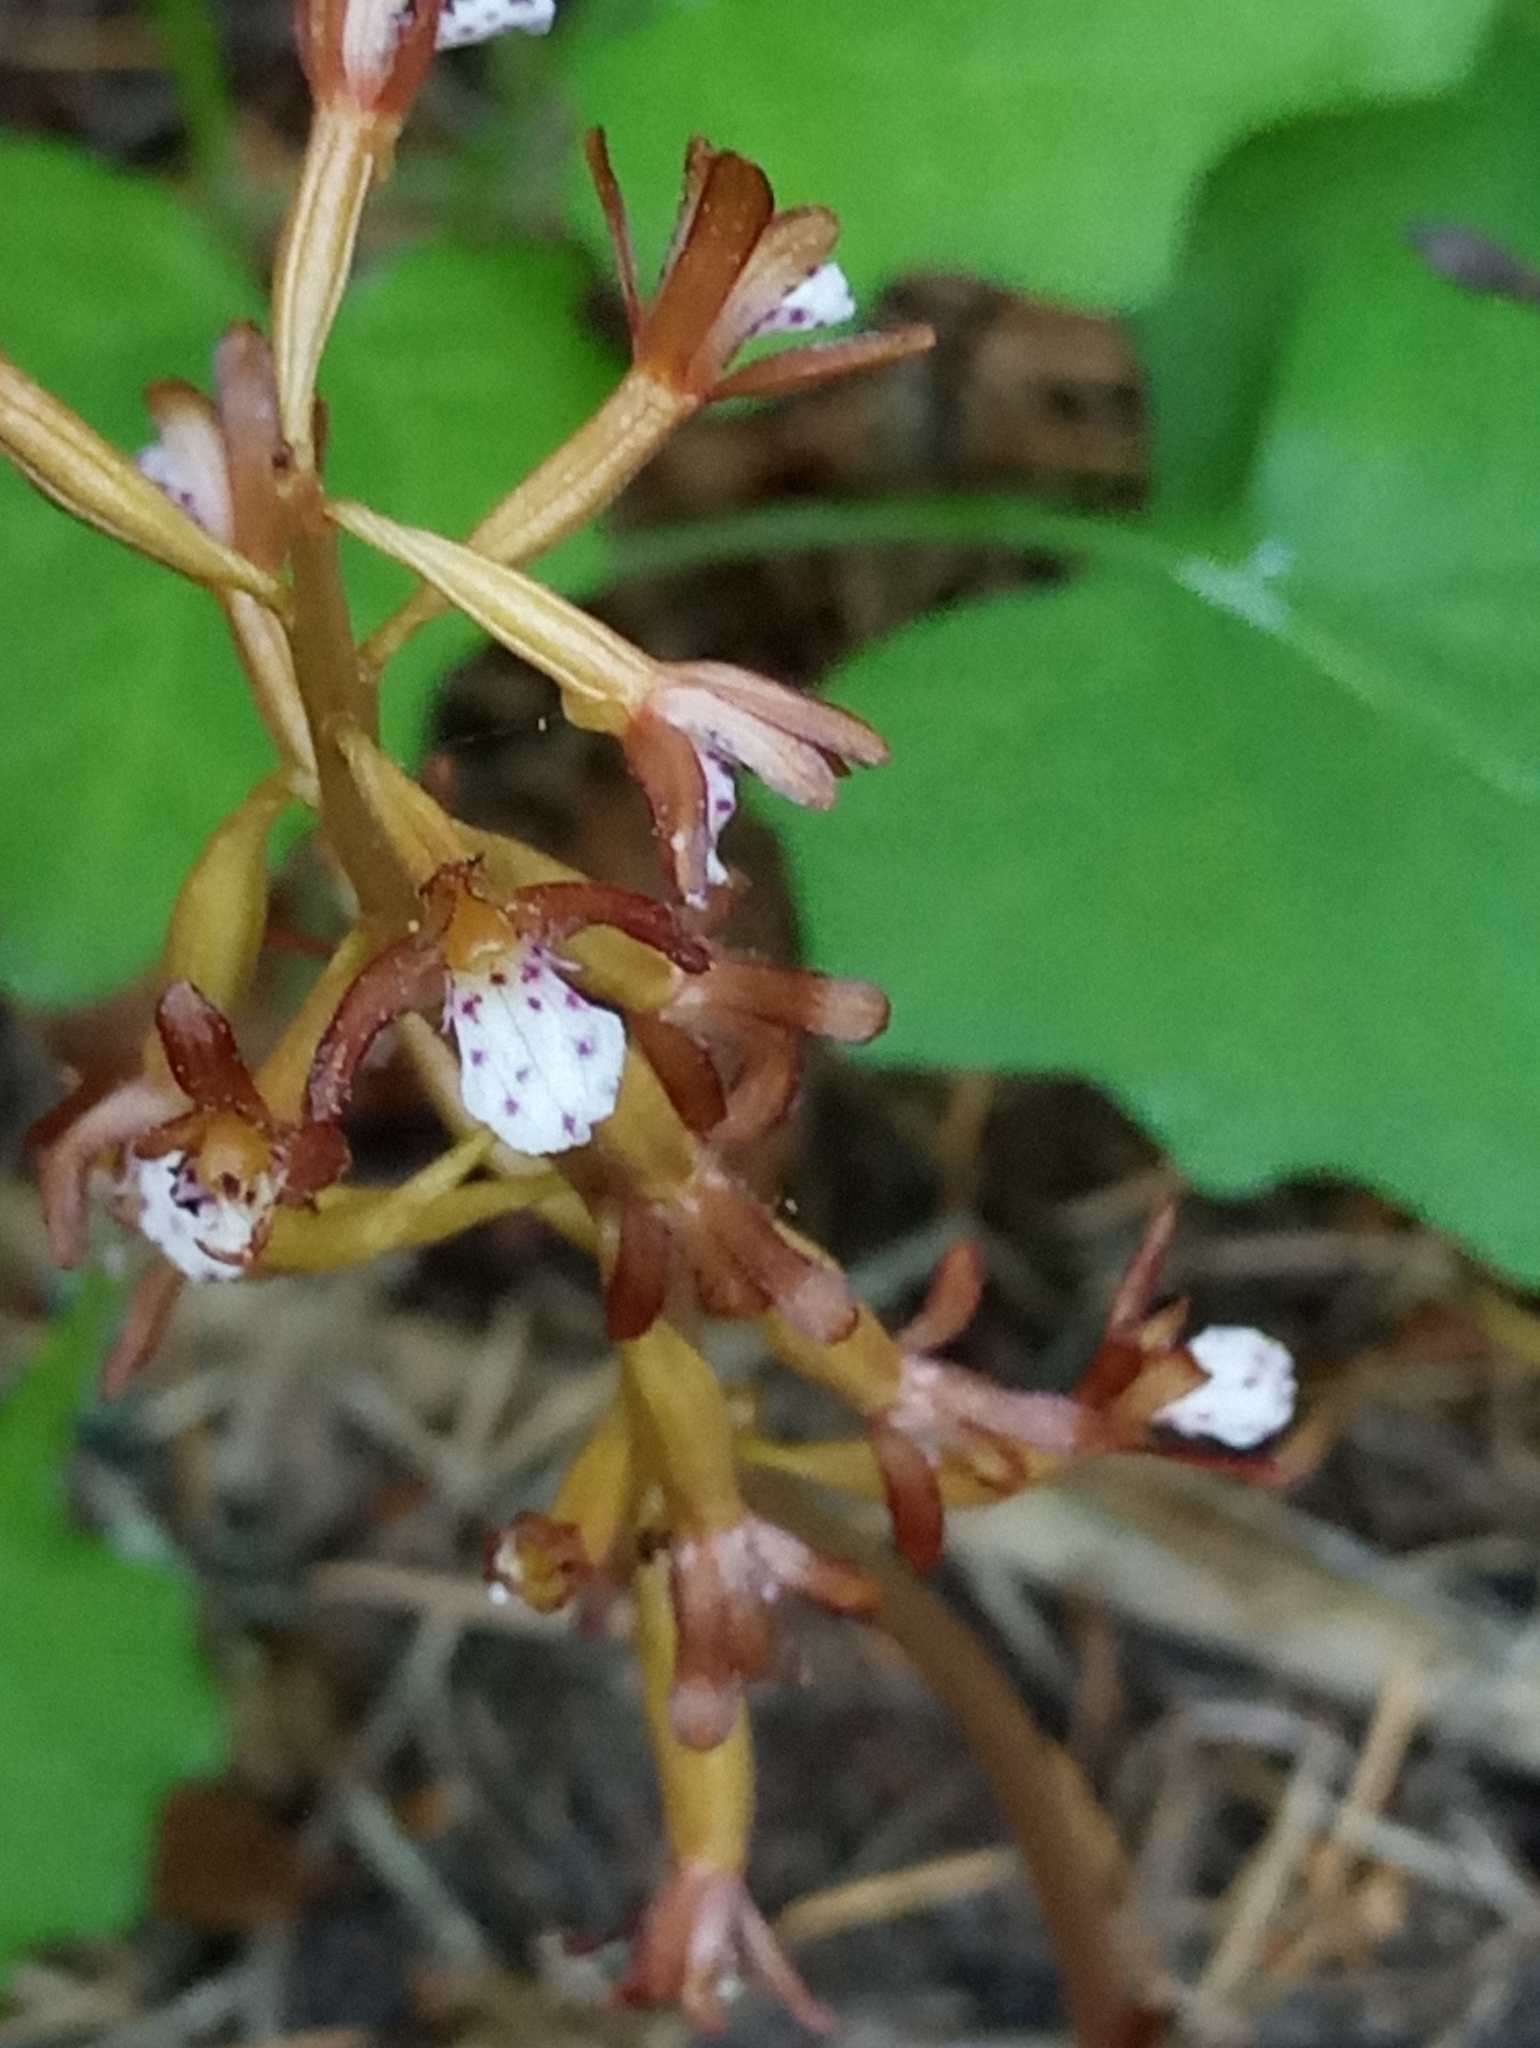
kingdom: Plantae
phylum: Tracheophyta
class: Liliopsida
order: Asparagales
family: Orchidaceae
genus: Corallorhiza
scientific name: Corallorhiza maculata
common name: Spotted coralroot
